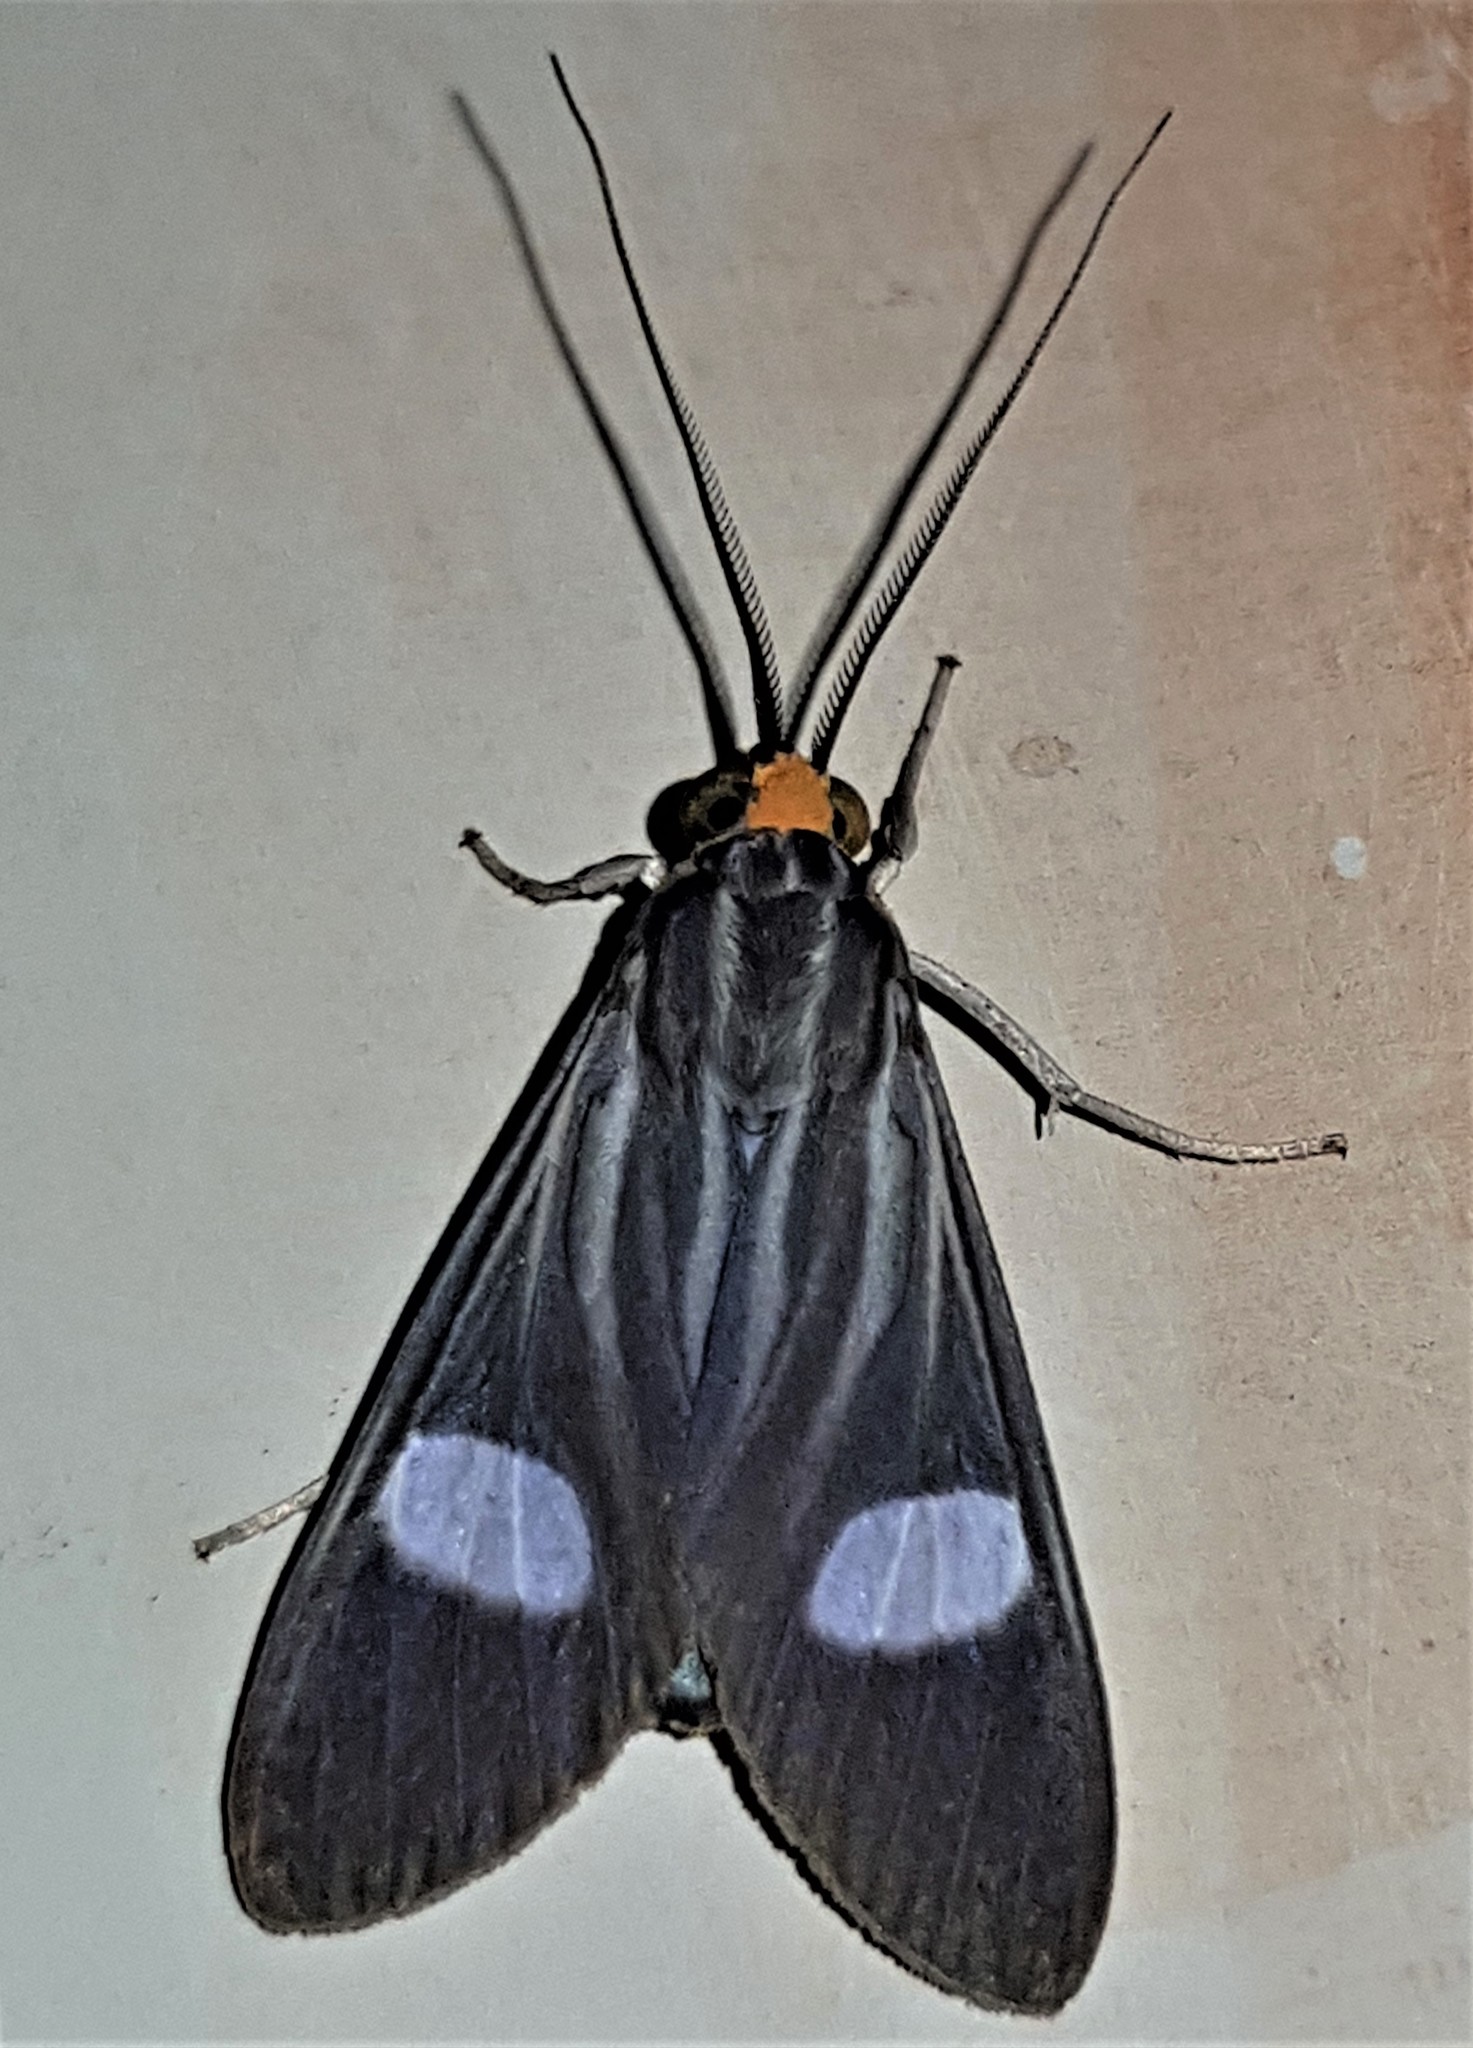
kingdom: Animalia
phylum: Arthropoda
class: Insecta
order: Lepidoptera
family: Erebidae
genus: Glaucostola
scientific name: Glaucostola guttipalpis
